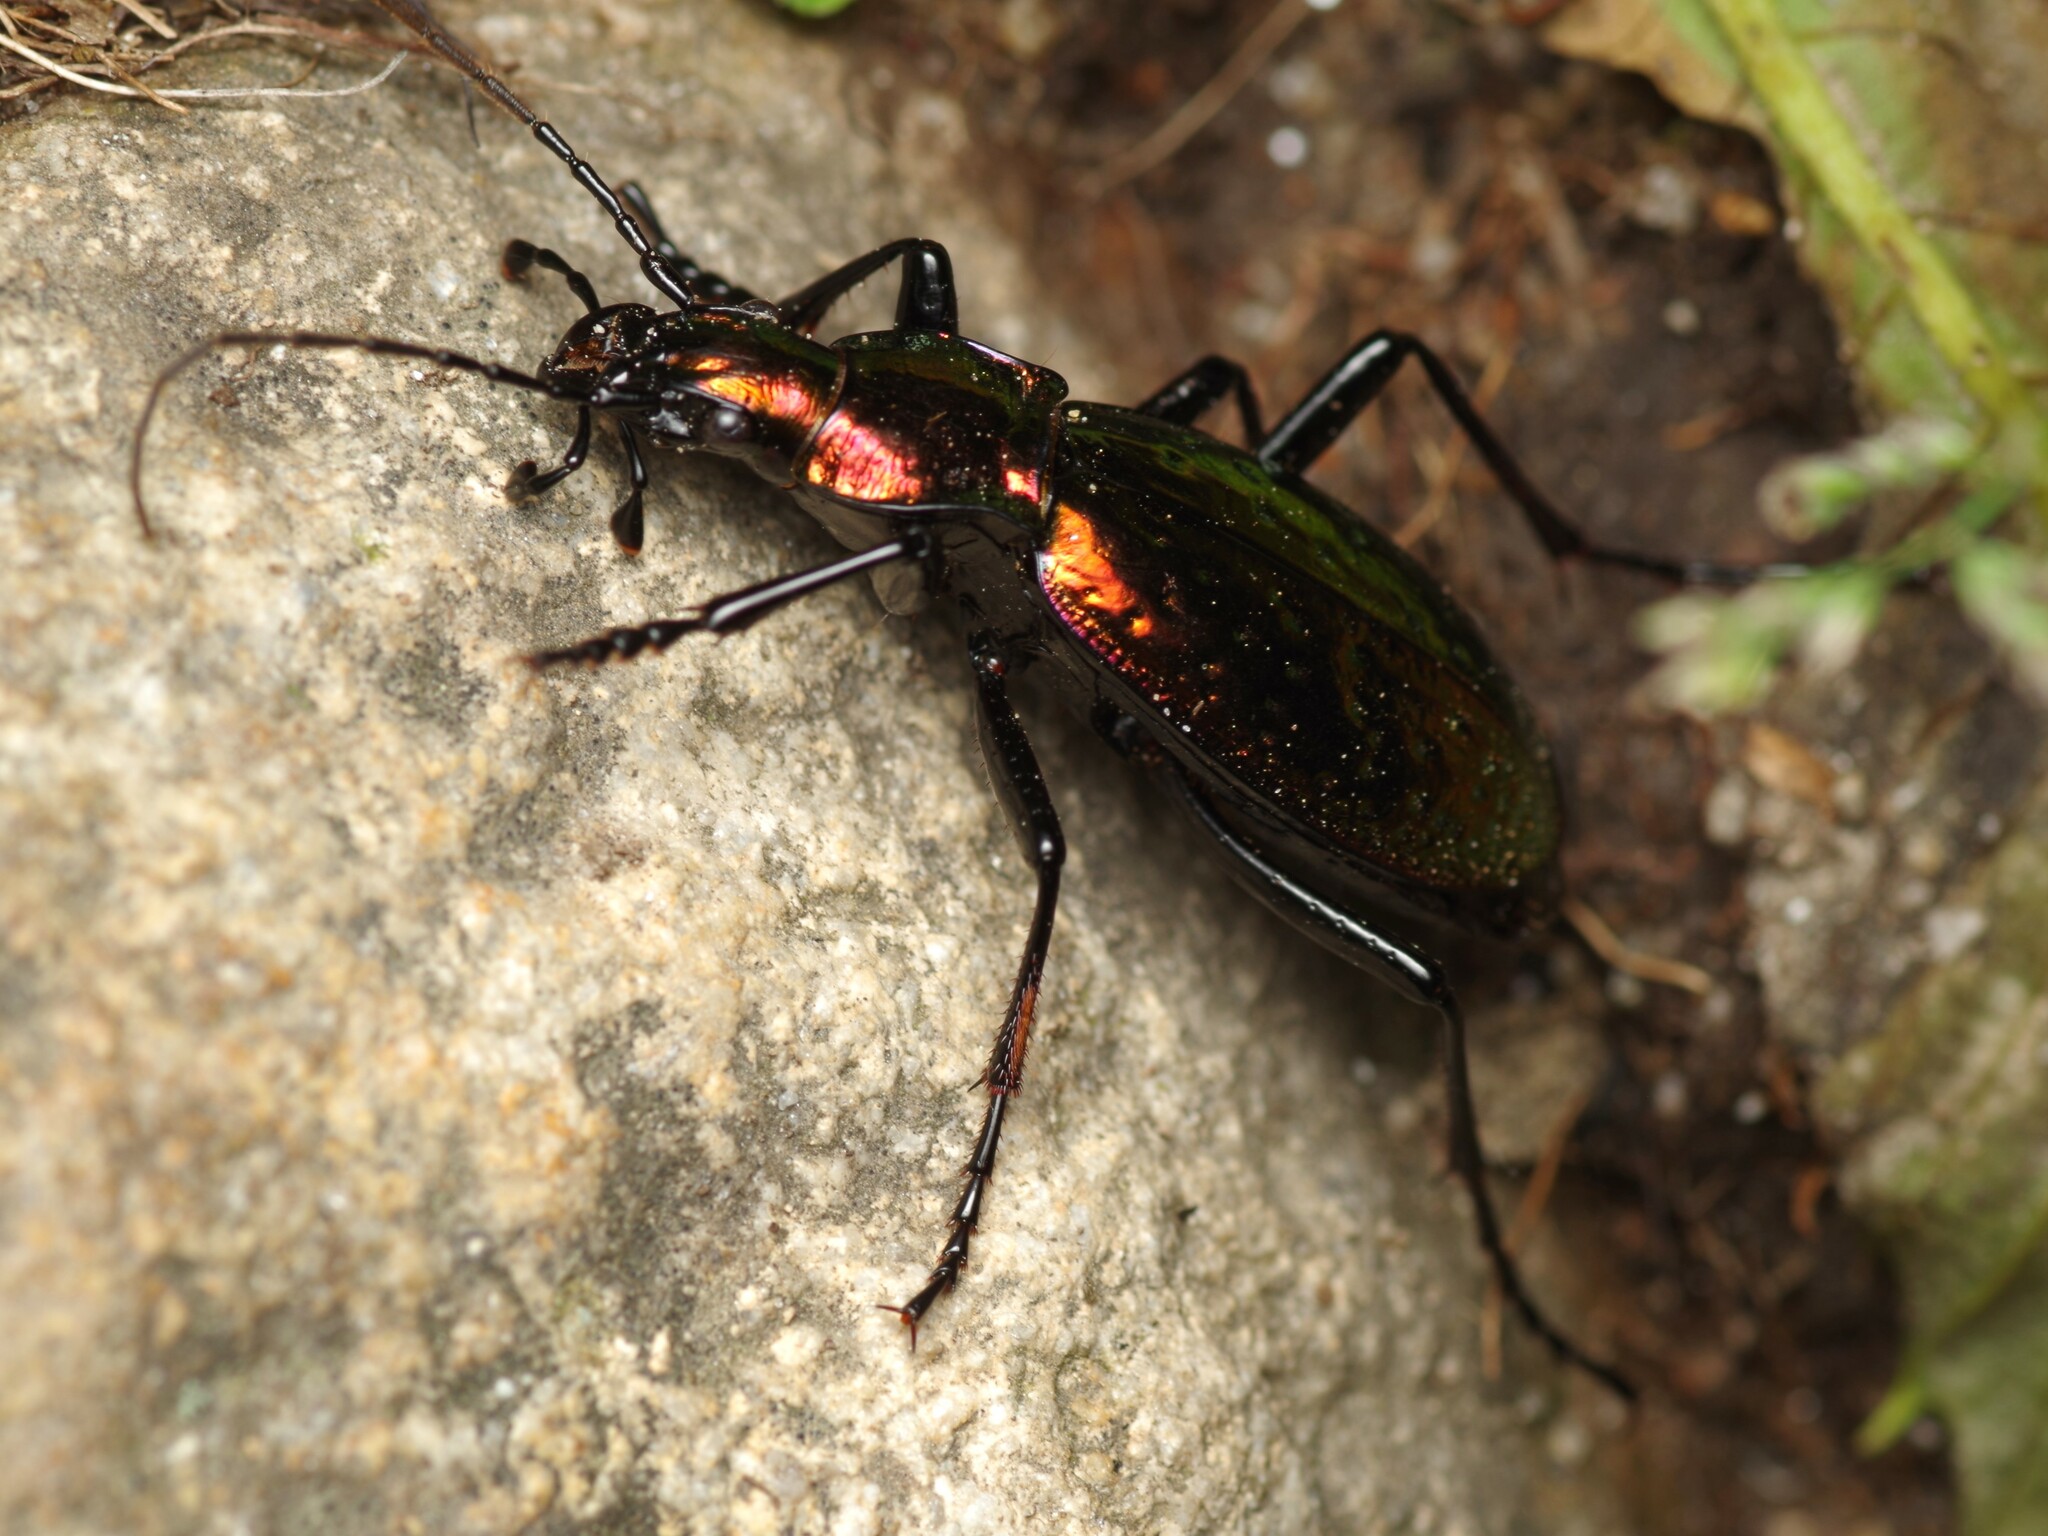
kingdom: Animalia
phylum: Arthropoda
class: Insecta
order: Coleoptera
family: Carabidae
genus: Carabus
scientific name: Carabus rutilans
